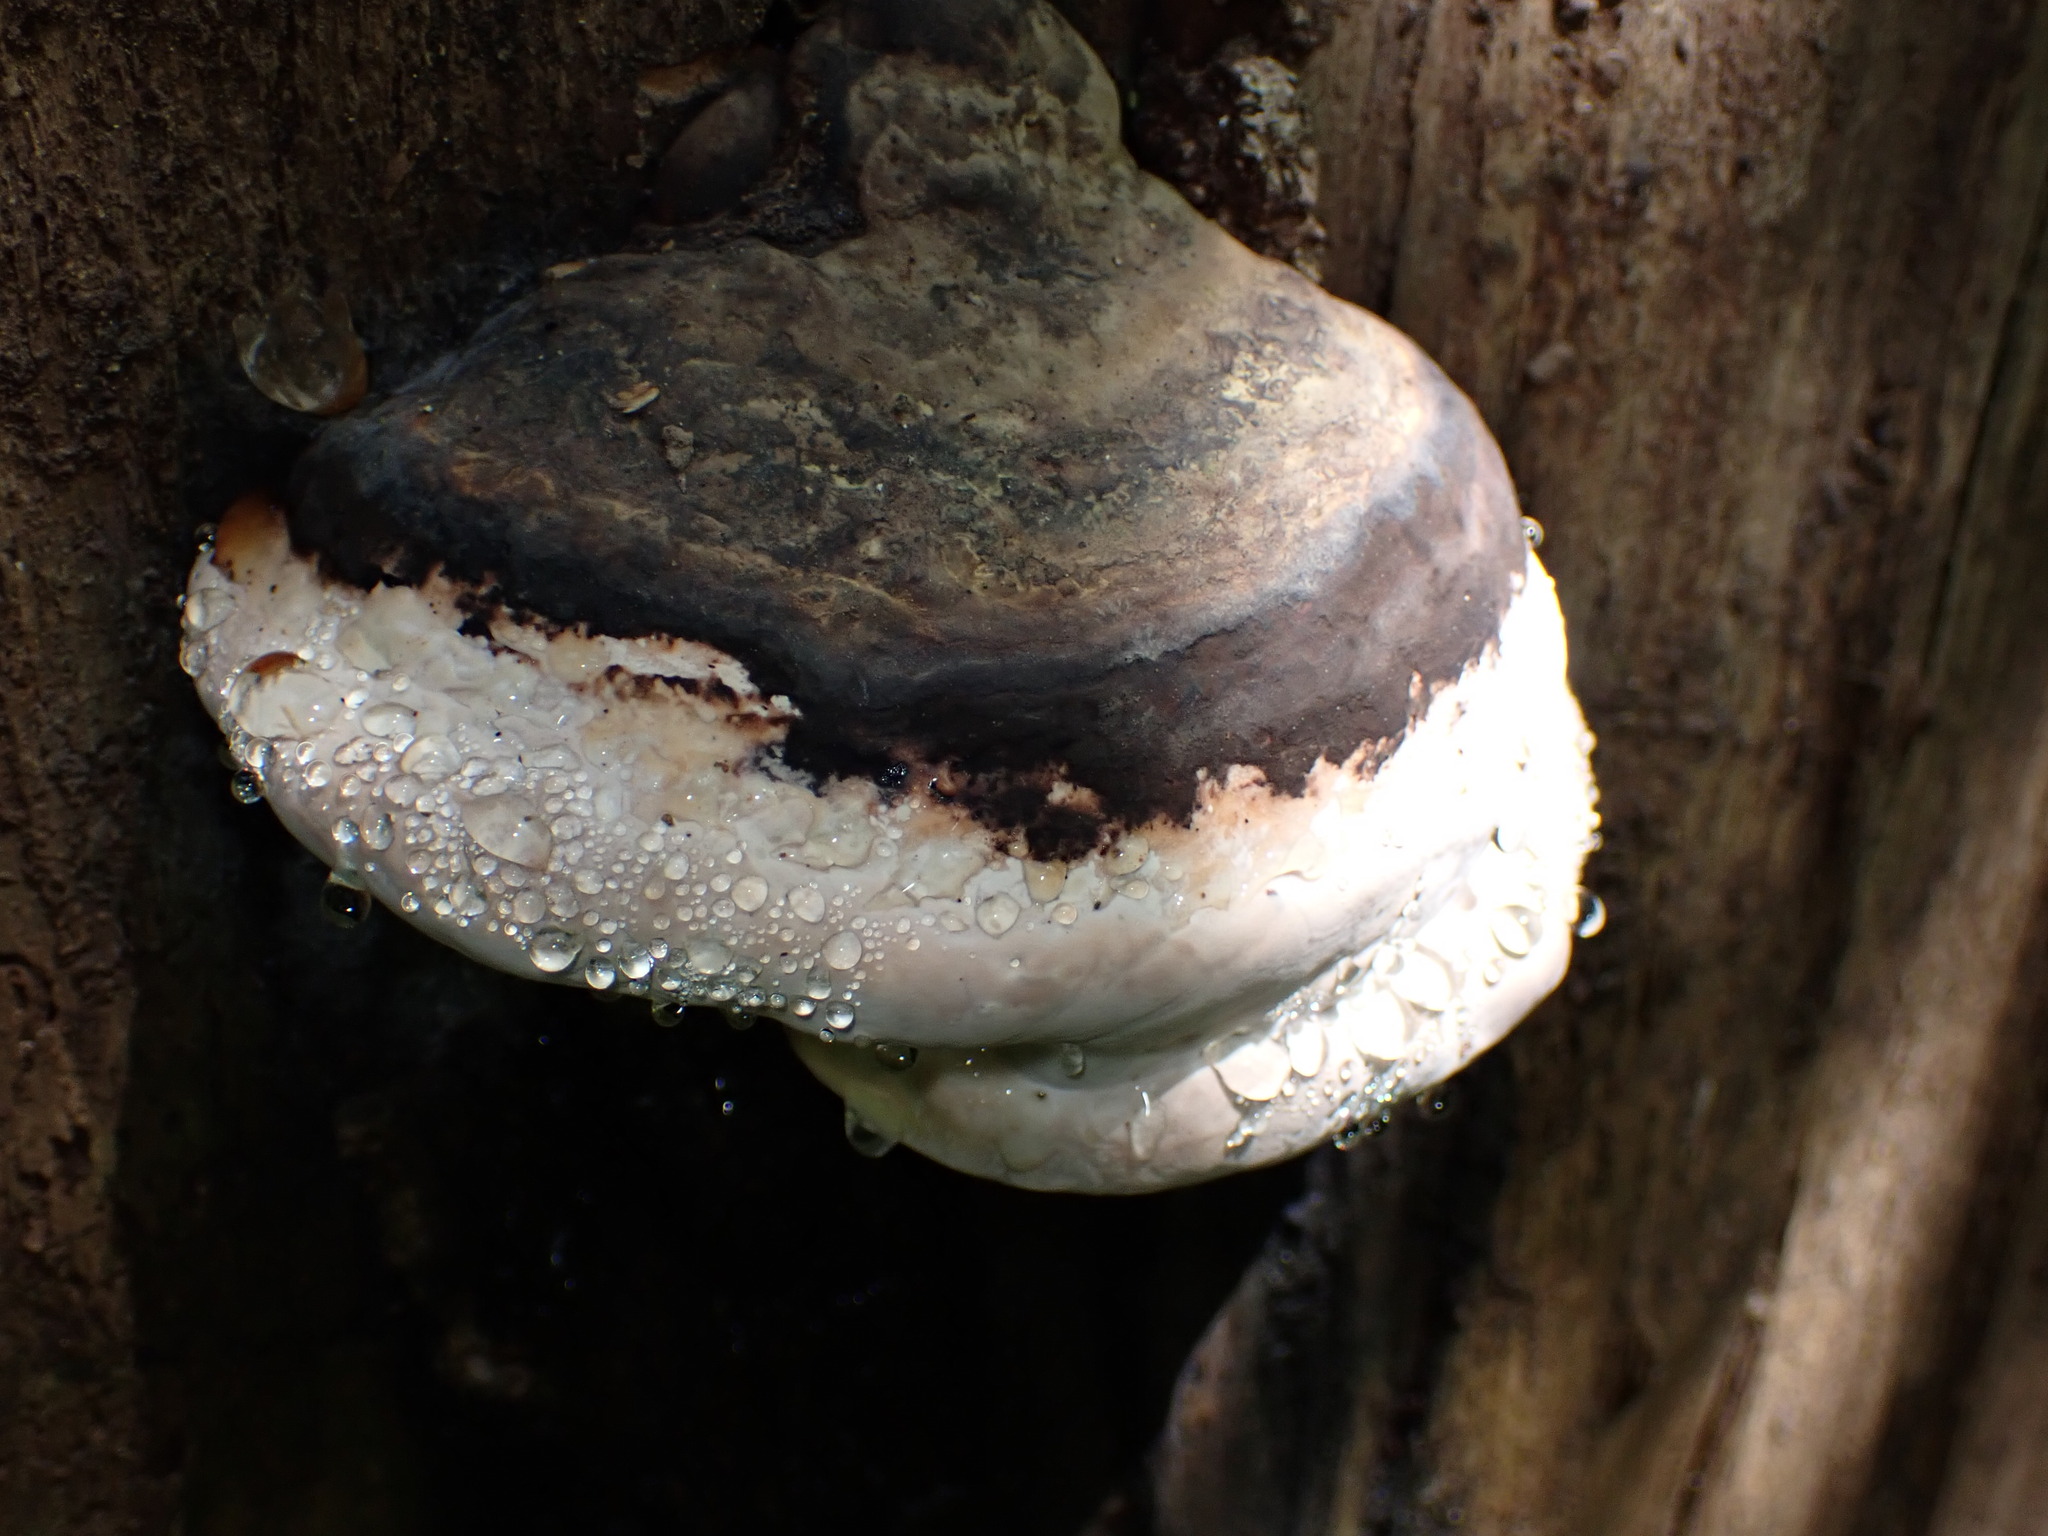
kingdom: Fungi
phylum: Basidiomycota
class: Agaricomycetes
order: Polyporales
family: Fomitopsidaceae
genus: Fomitopsis
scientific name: Fomitopsis ochracea
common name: American brown fomitopsis
